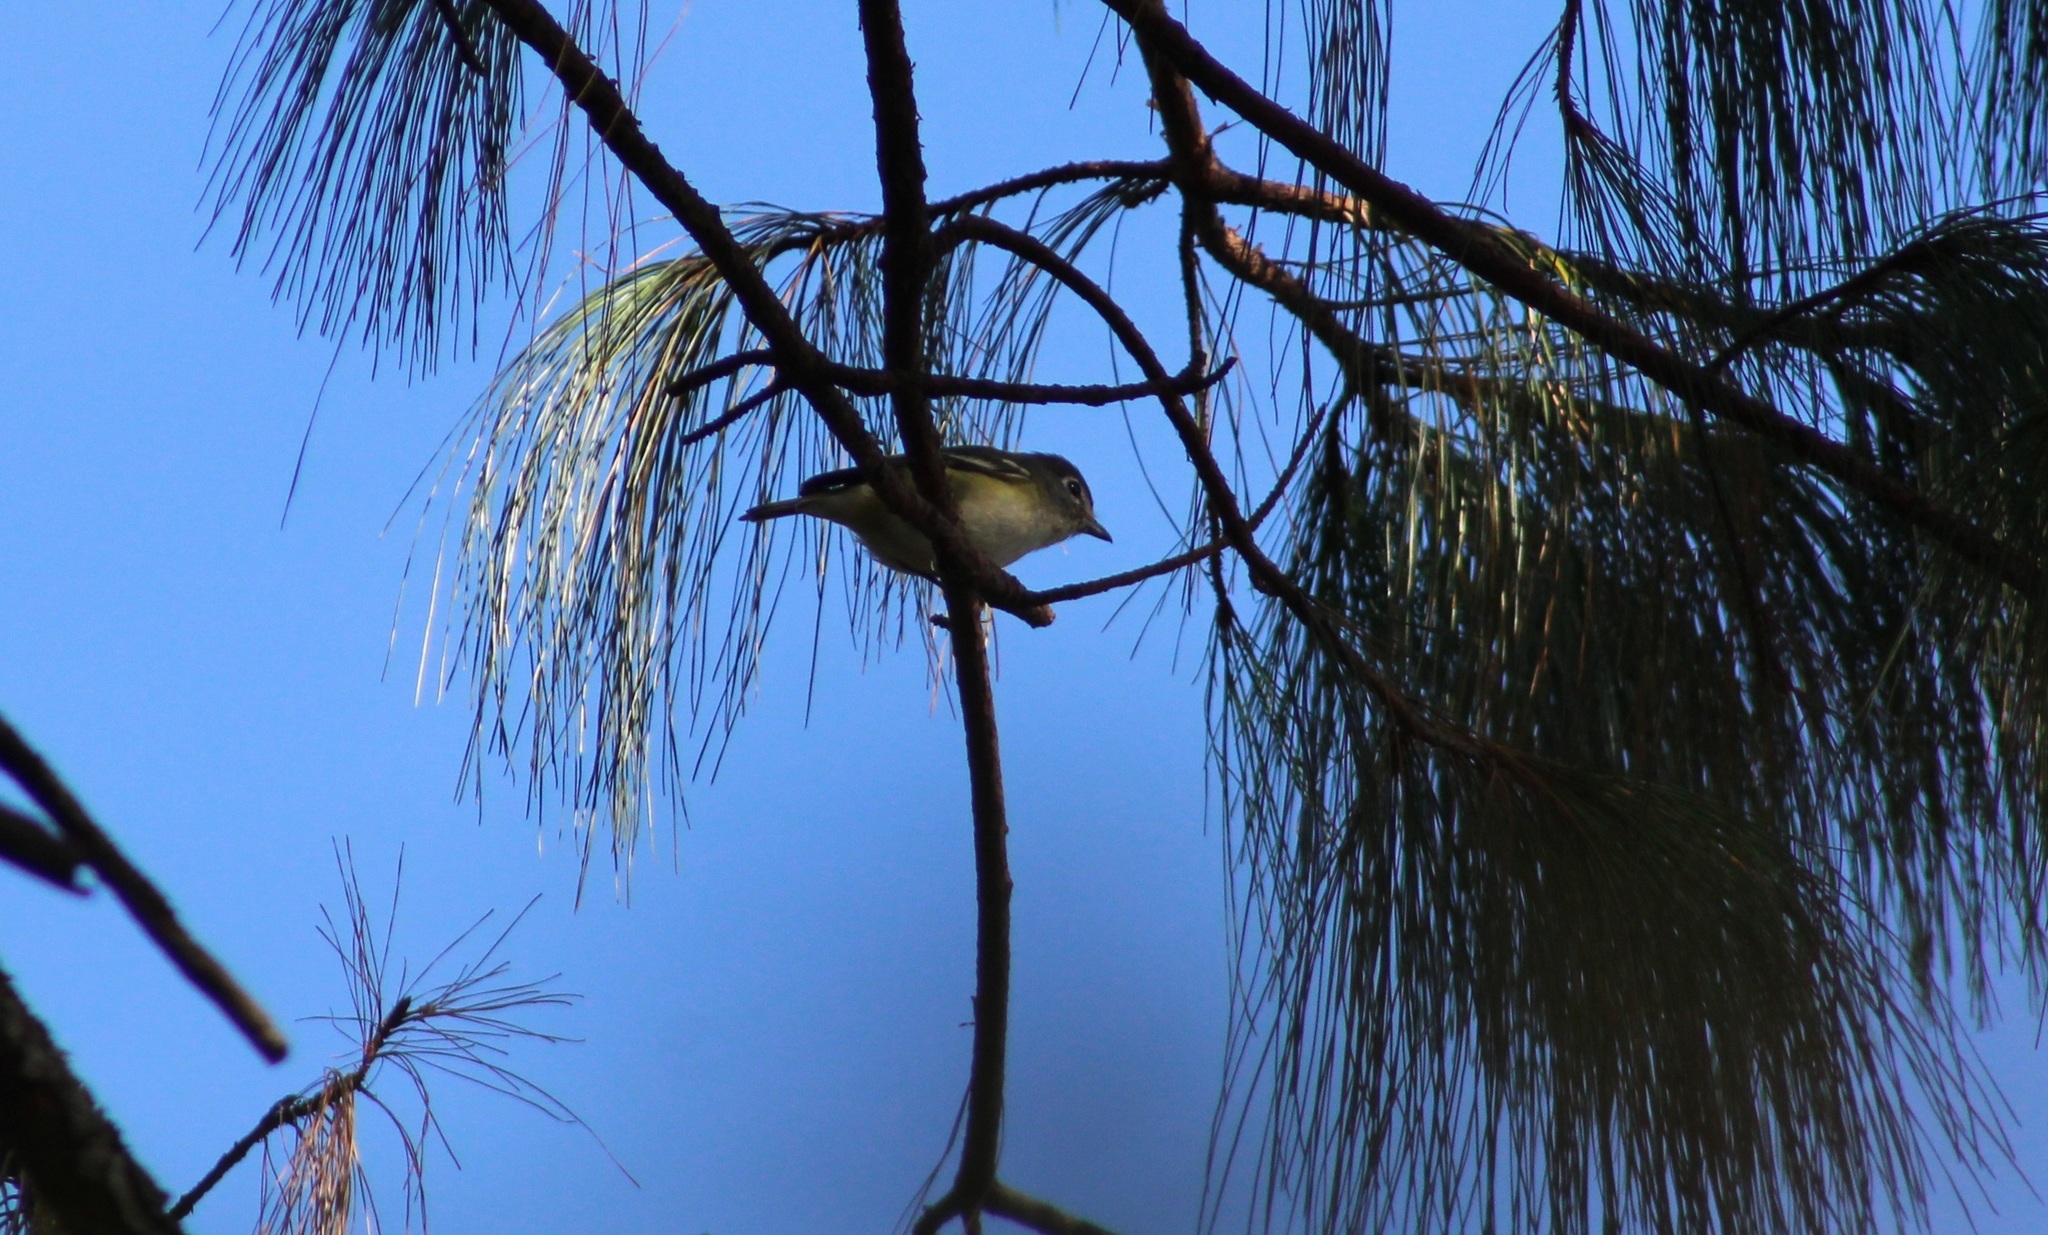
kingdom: Animalia
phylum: Chordata
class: Aves
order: Passeriformes
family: Vireonidae
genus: Vireo
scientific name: Vireo solitarius
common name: Blue-headed vireo
